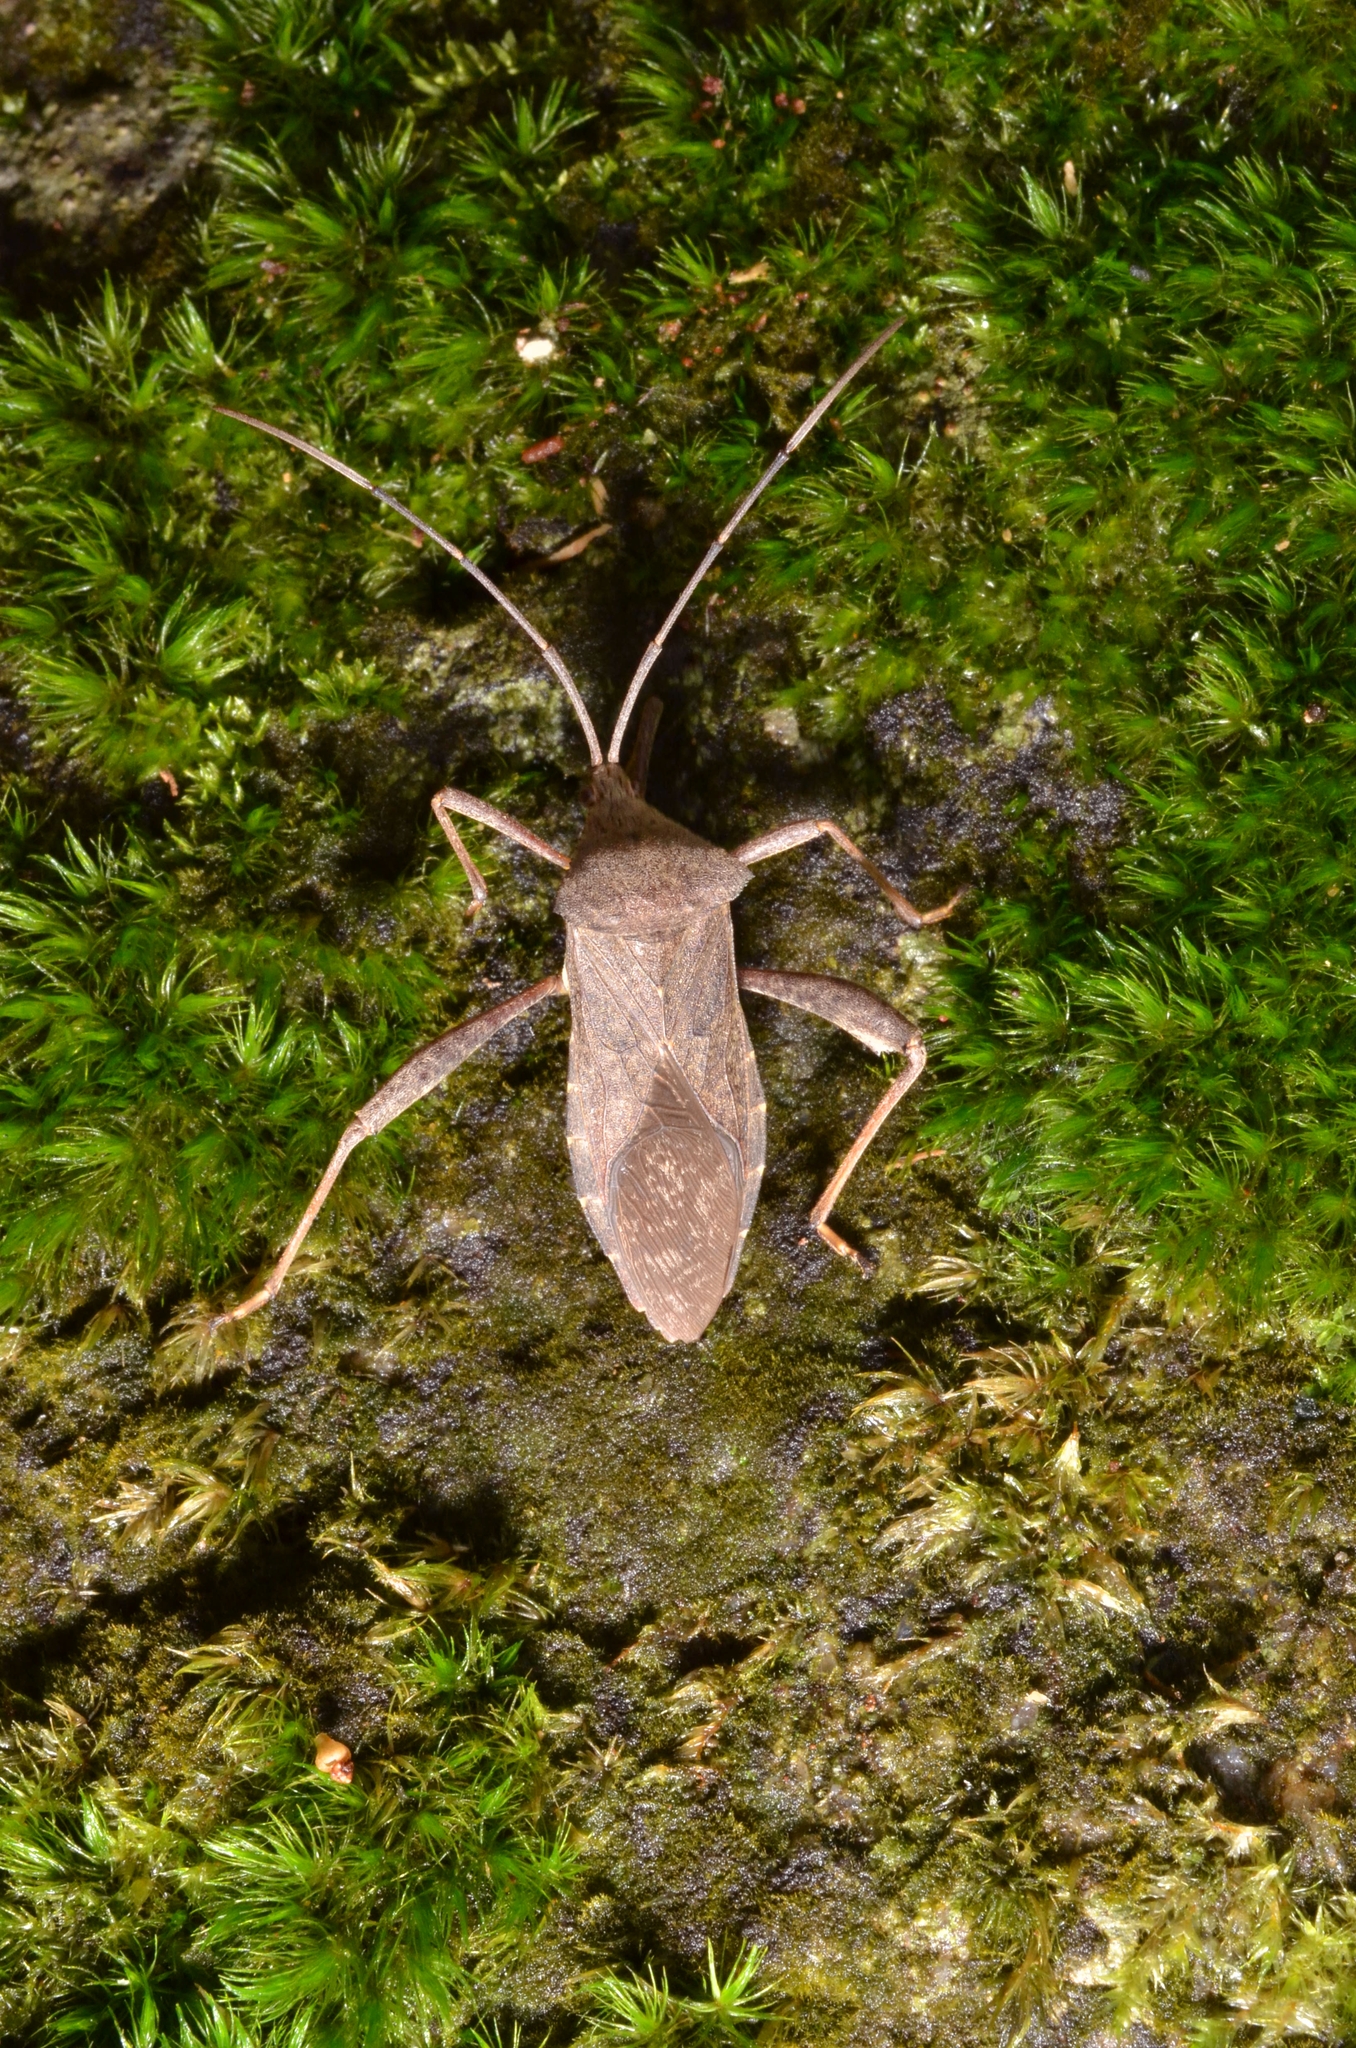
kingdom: Animalia
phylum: Arthropoda
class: Insecta
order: Hemiptera
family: Coreidae
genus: Mictis
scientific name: Mictis gallina
